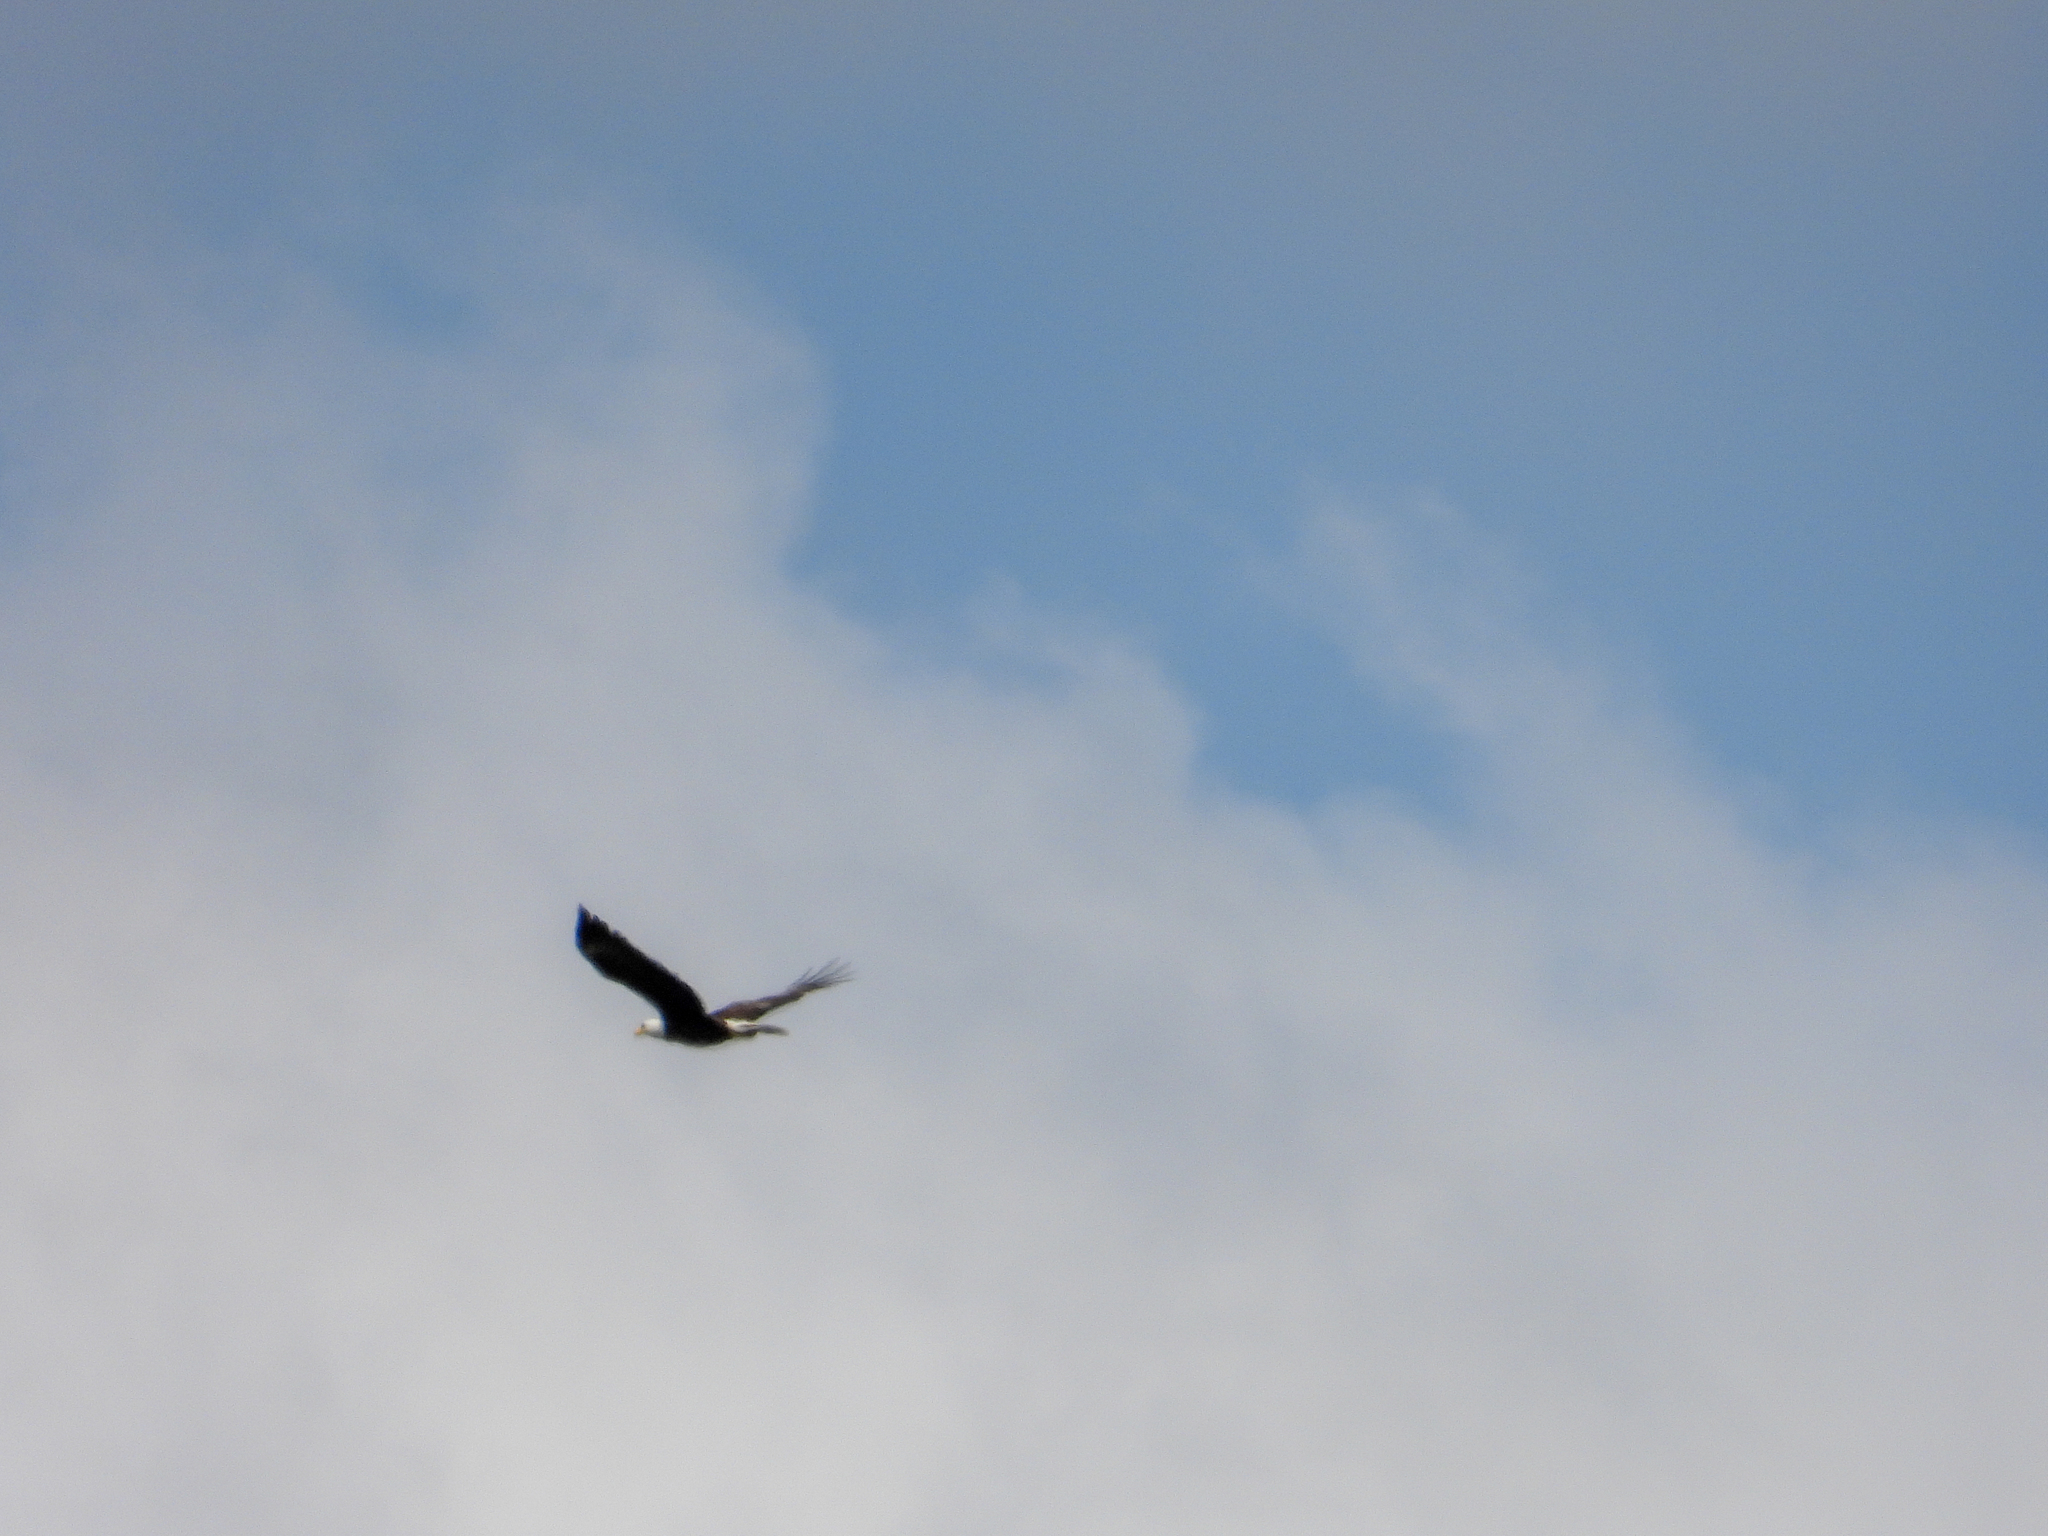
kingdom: Animalia
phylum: Chordata
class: Aves
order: Accipitriformes
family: Accipitridae
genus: Haliaeetus
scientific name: Haliaeetus leucocephalus
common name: Bald eagle
